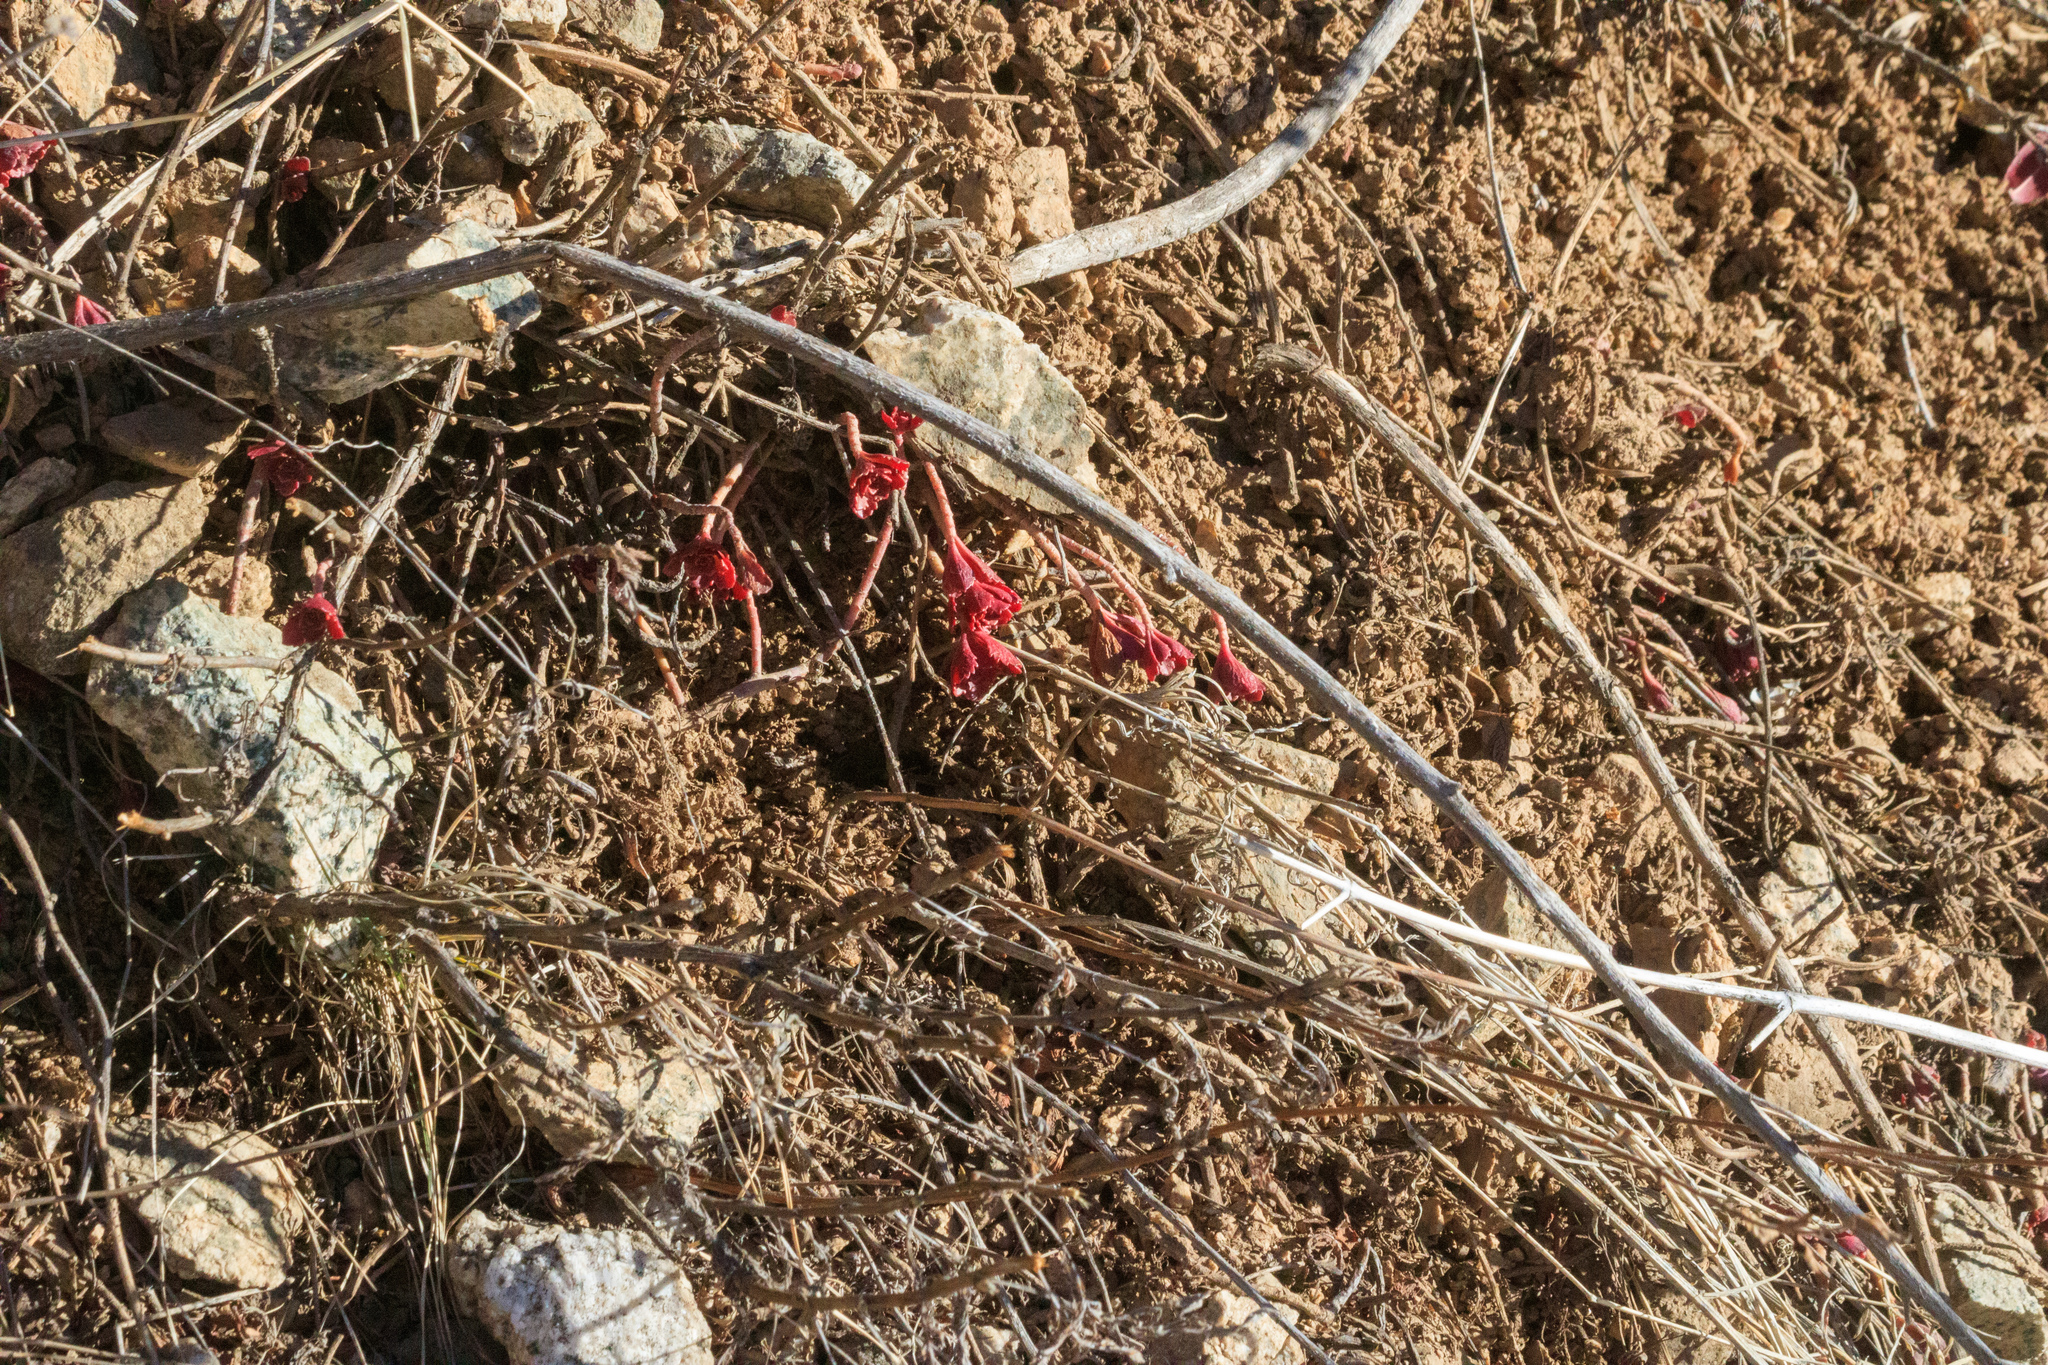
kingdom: Plantae
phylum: Tracheophyta
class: Magnoliopsida
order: Saxifragales
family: Crassulaceae
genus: Phedimus
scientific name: Phedimus hybridus
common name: Hybrid stonecrop
